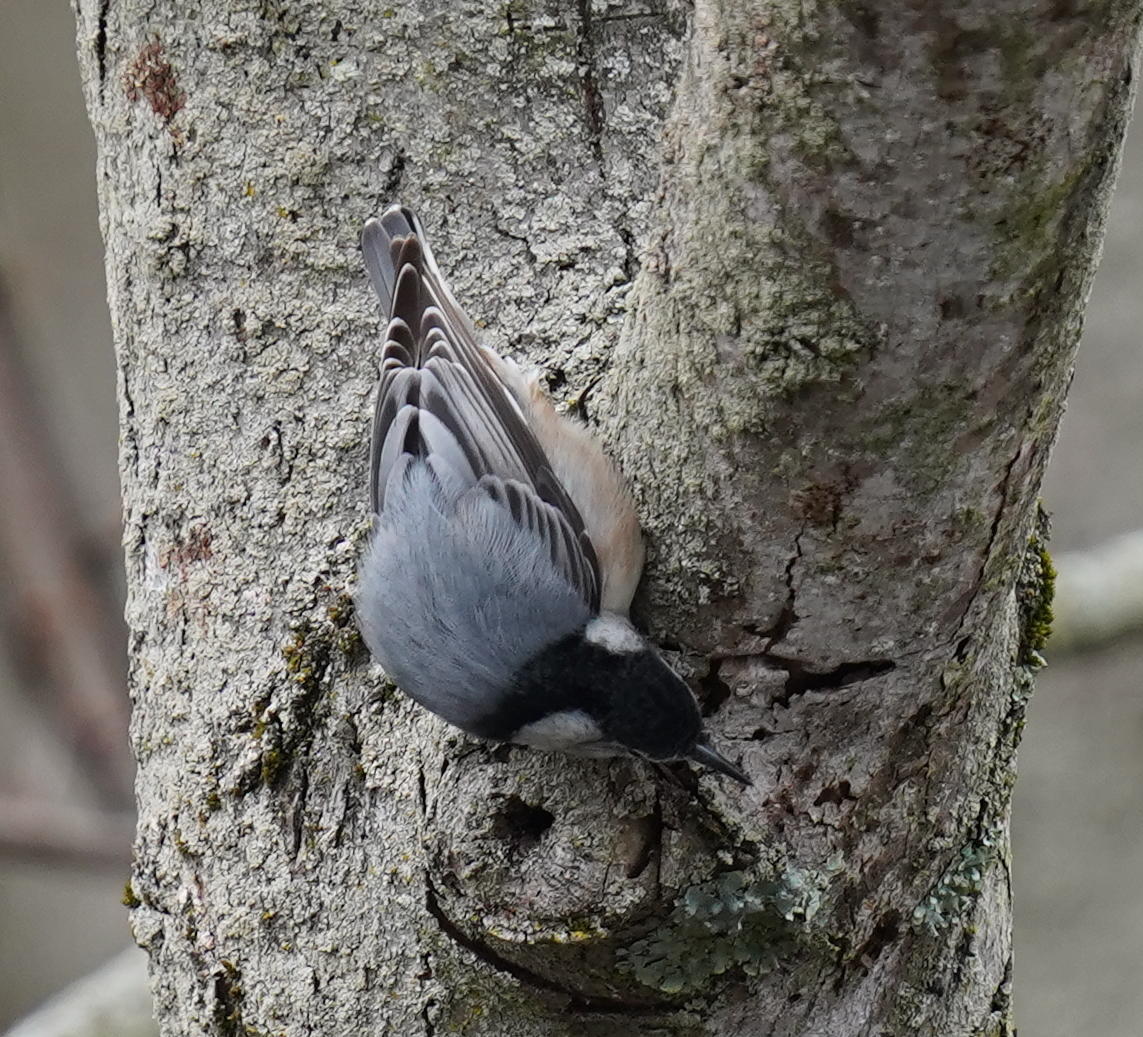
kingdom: Animalia
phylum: Chordata
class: Aves
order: Passeriformes
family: Sittidae
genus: Sitta
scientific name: Sitta carolinensis
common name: White-breasted nuthatch
